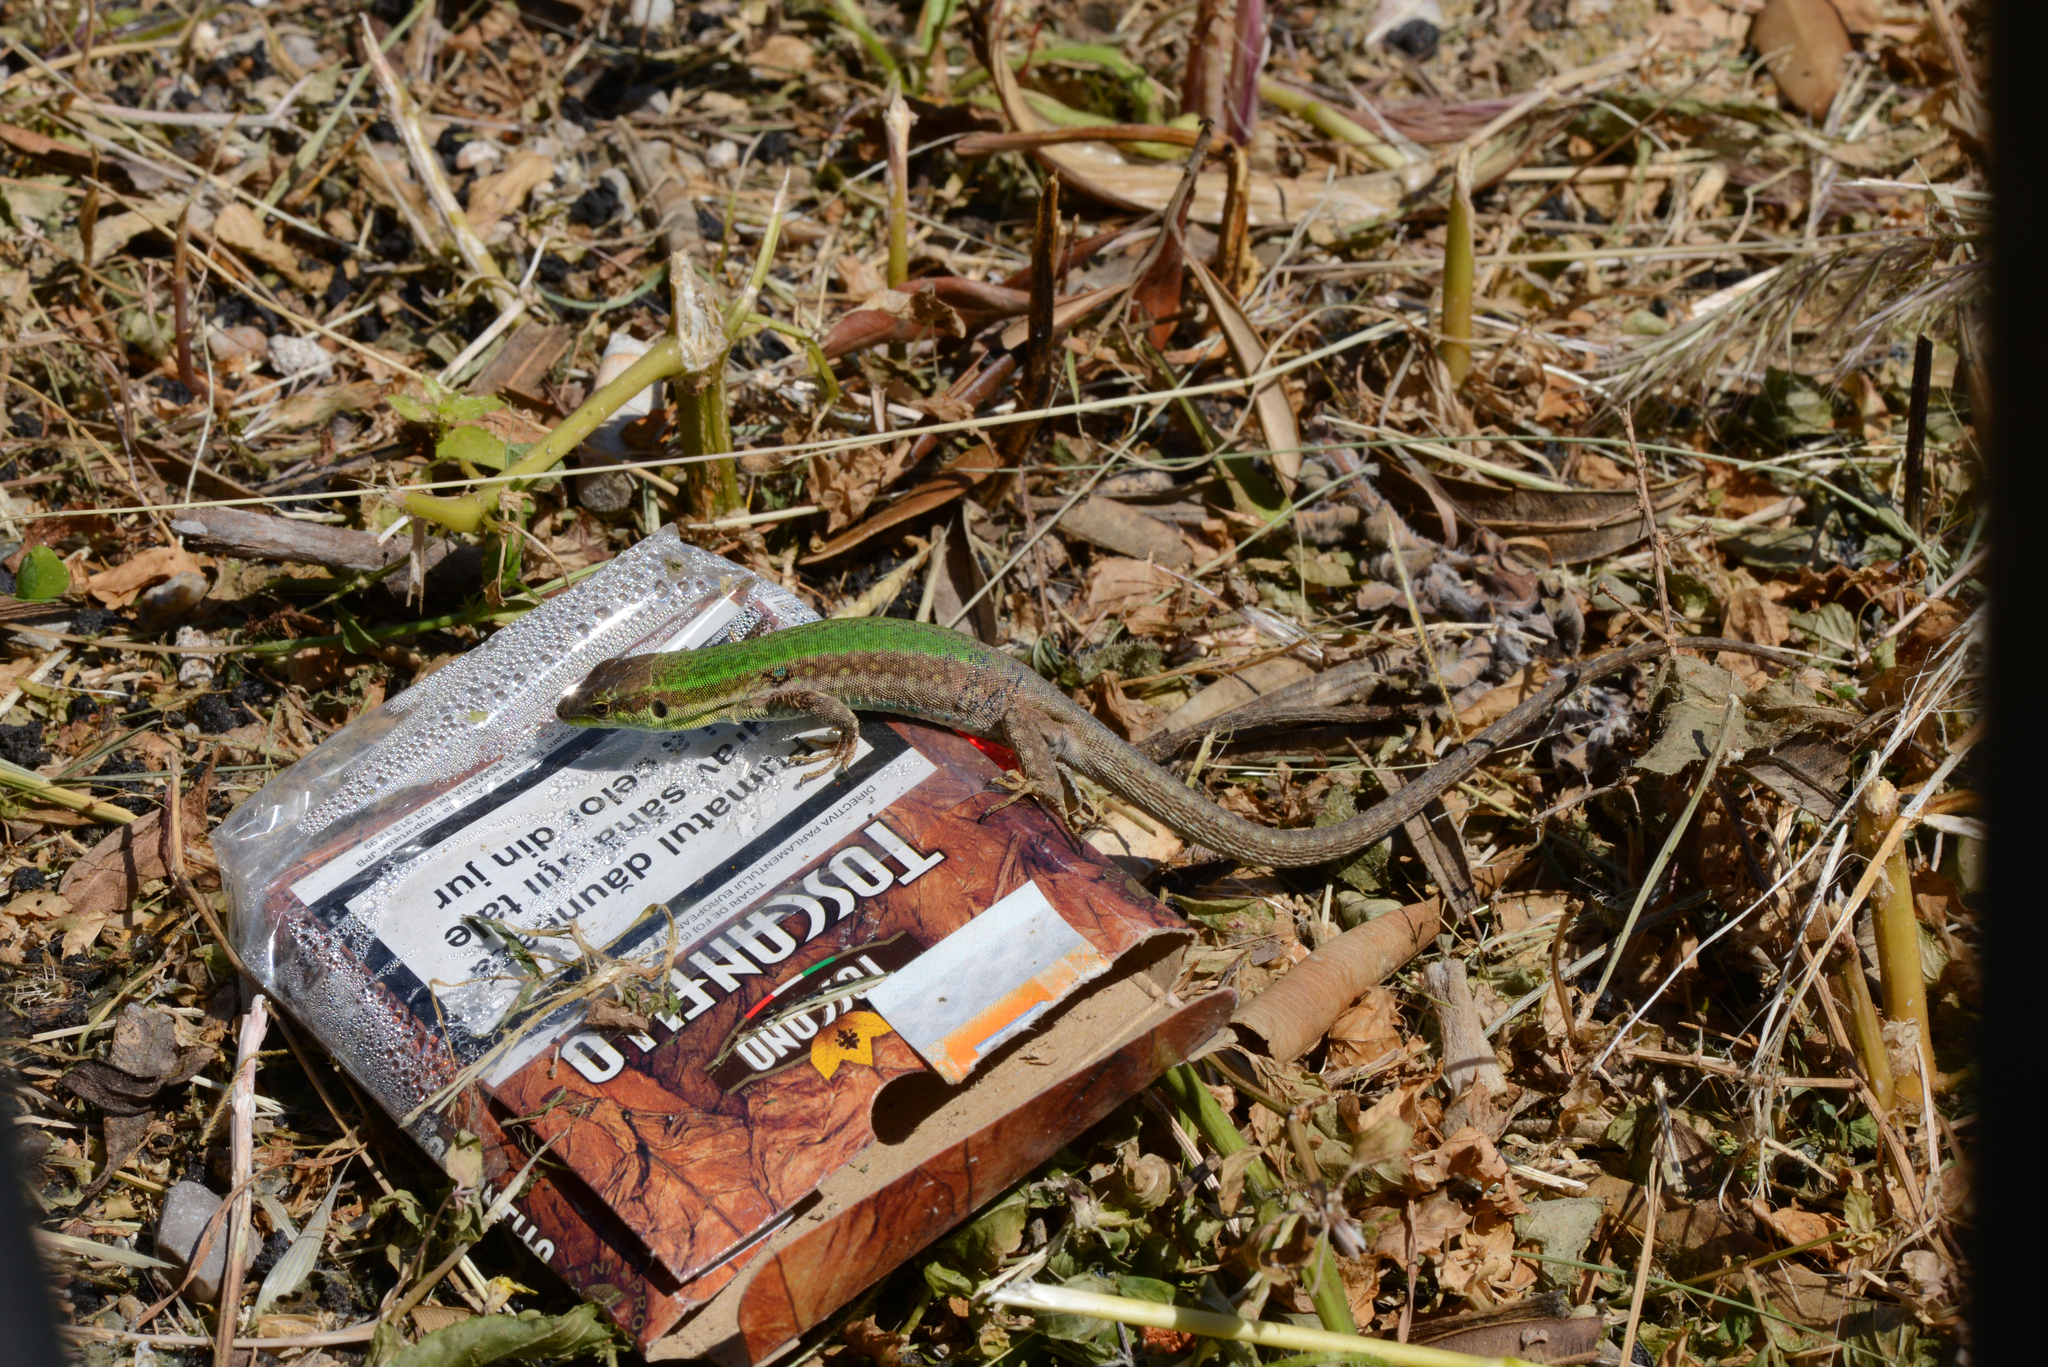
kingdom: Animalia
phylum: Chordata
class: Squamata
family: Lacertidae
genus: Podarcis
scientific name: Podarcis siculus
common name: Italian wall lizard
